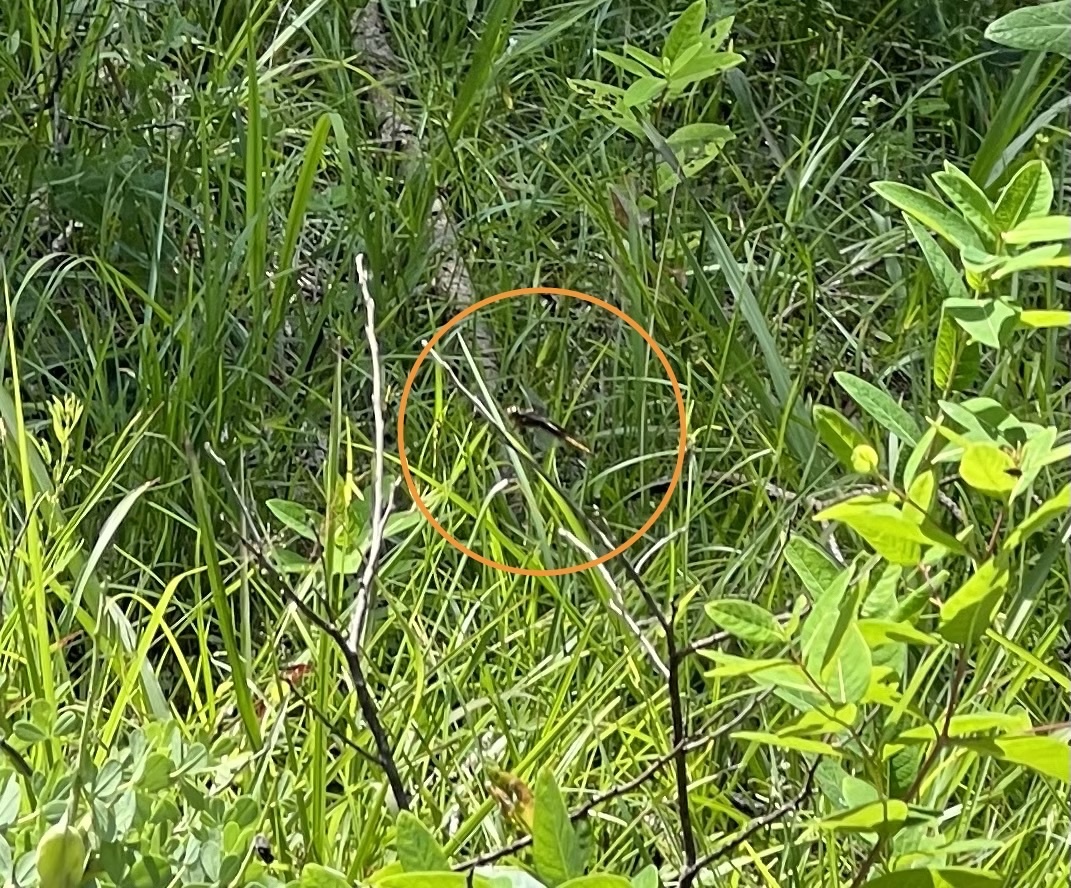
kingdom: Animalia
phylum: Arthropoda
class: Insecta
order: Odonata
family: Libellulidae
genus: Libellula
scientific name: Libellula luctuosa
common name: Widow skimmer
